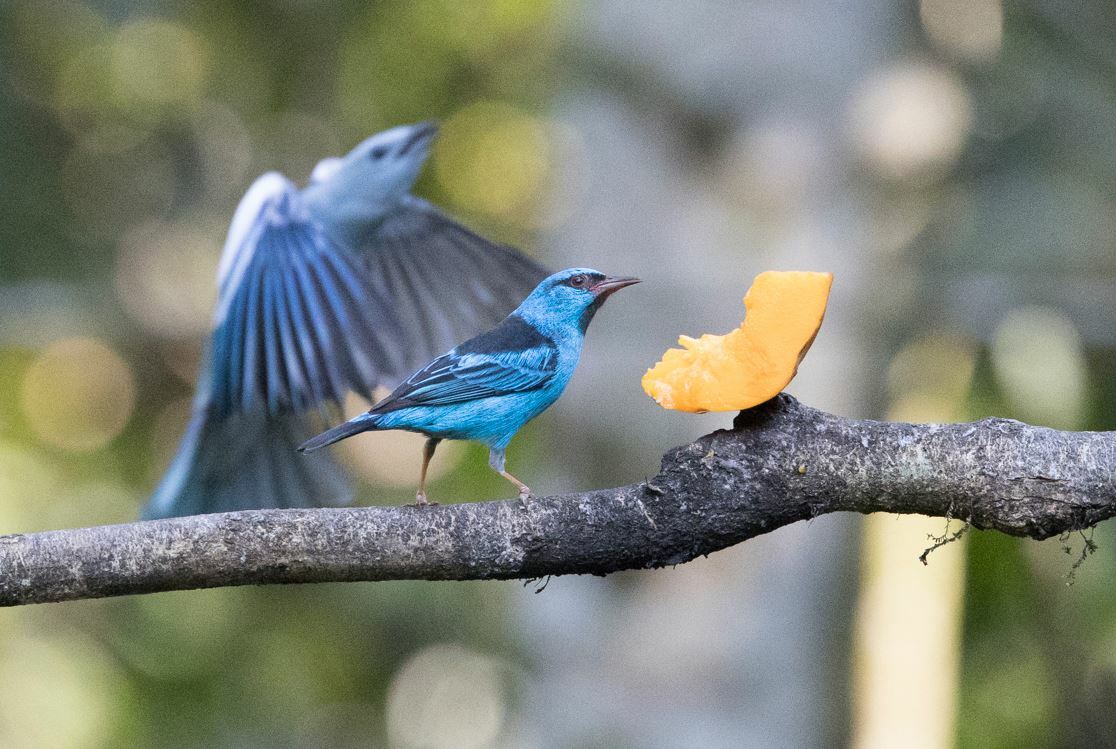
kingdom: Animalia
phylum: Chordata
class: Aves
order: Passeriformes
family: Thraupidae
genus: Dacnis
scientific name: Dacnis cayana
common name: Blue dacnis
